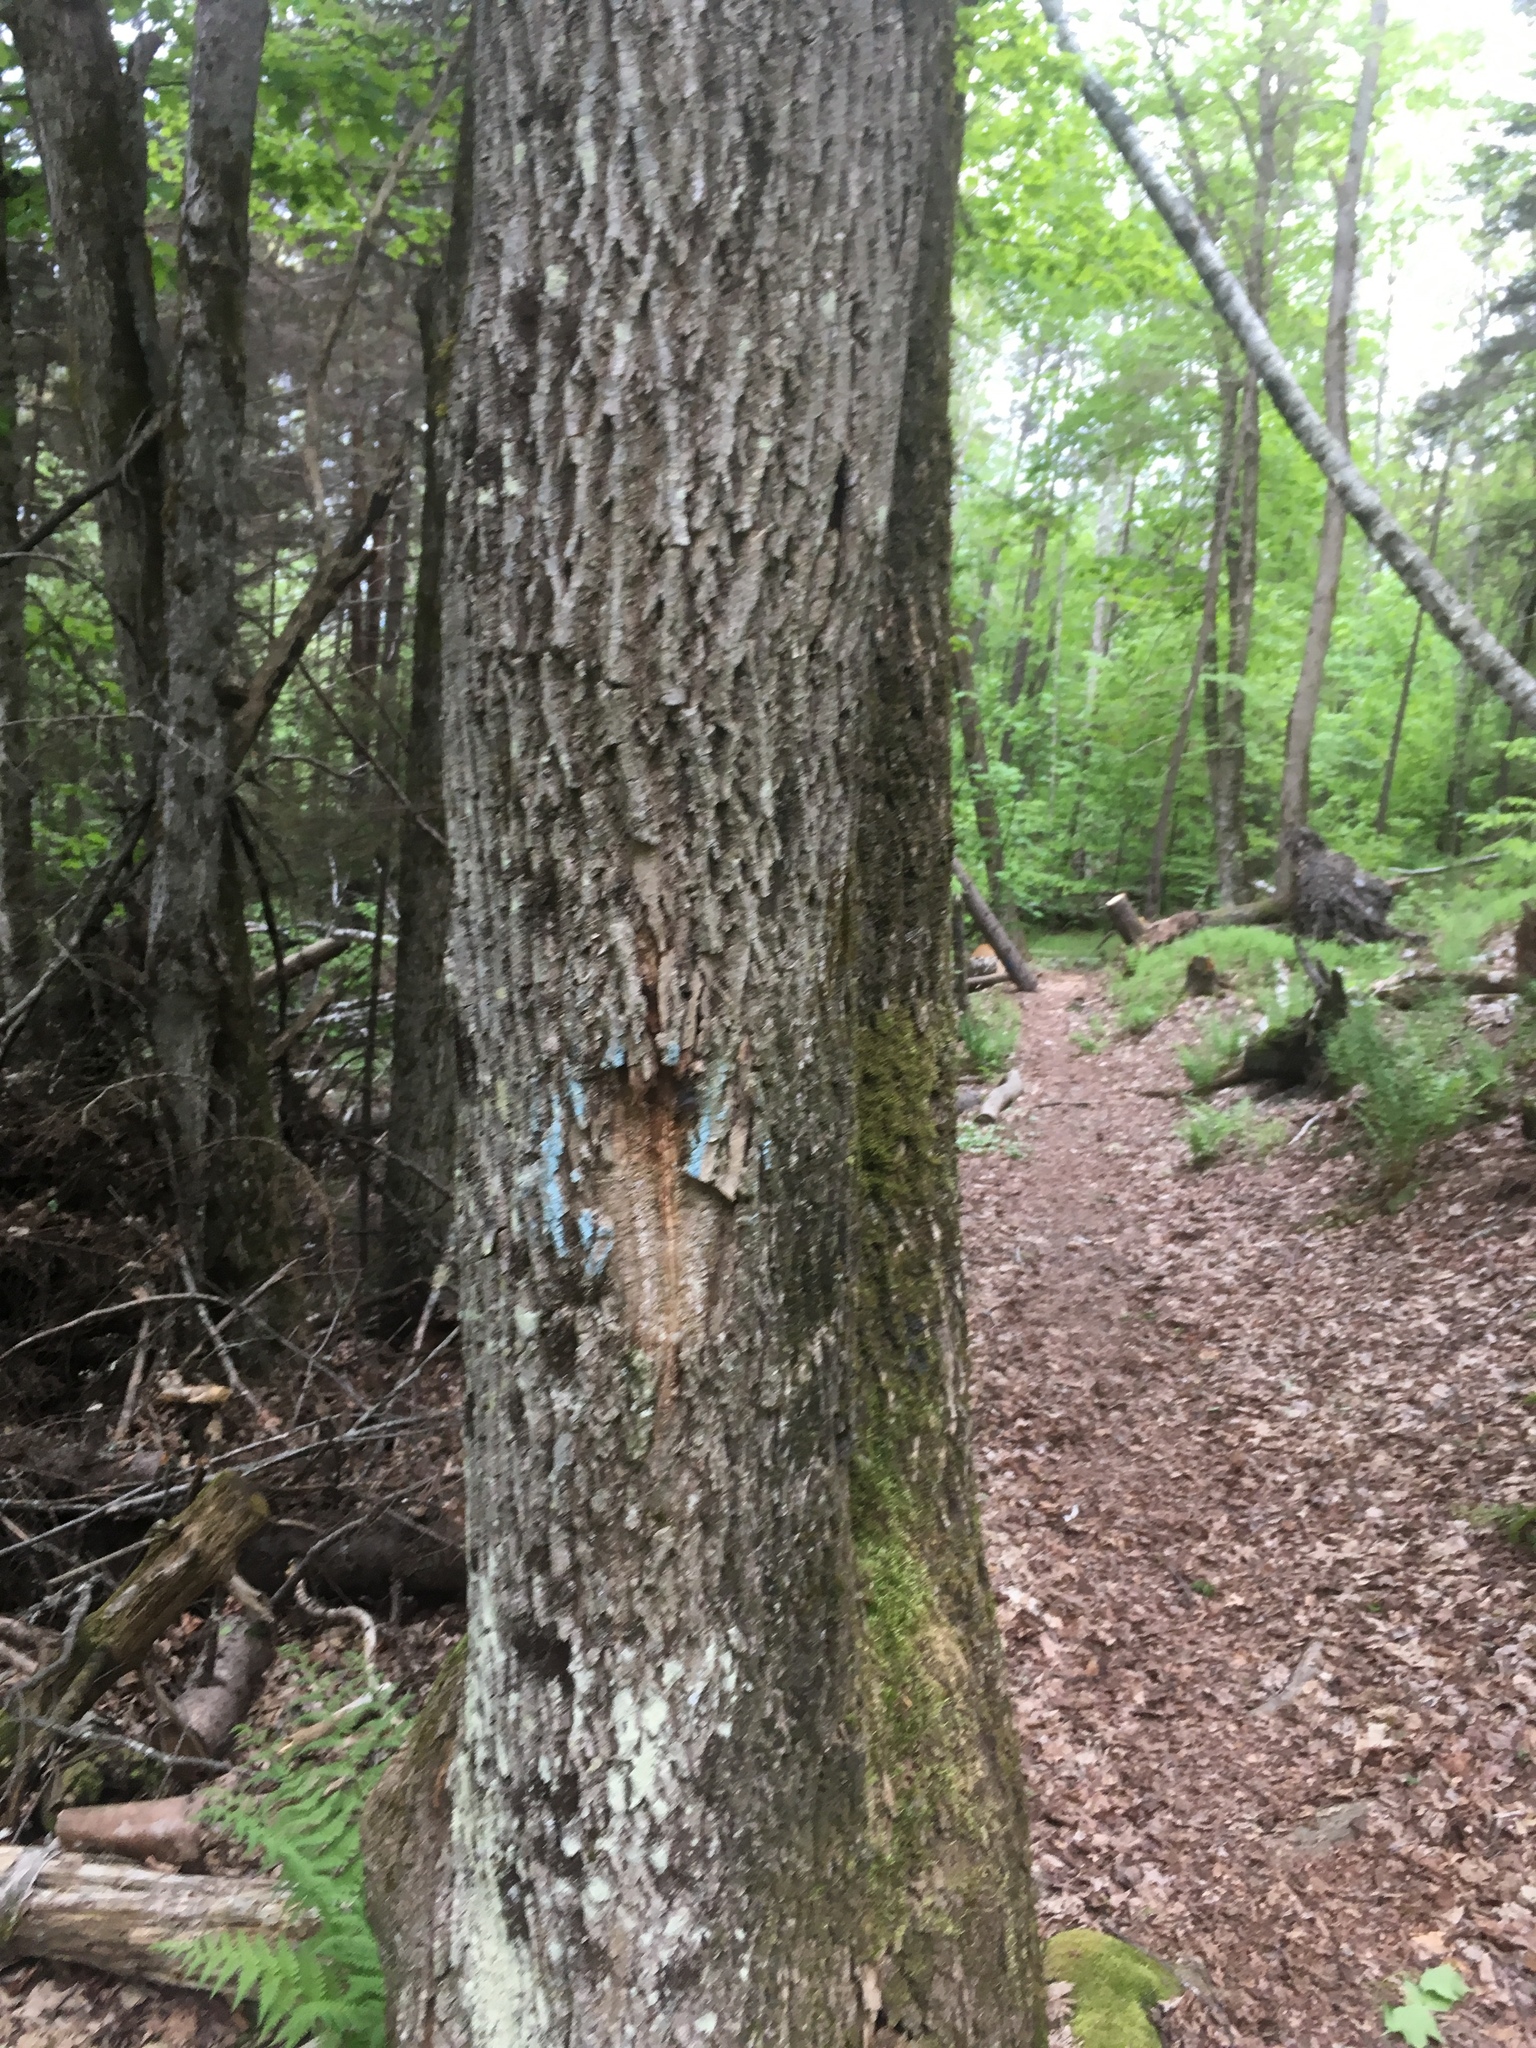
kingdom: Plantae
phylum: Tracheophyta
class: Magnoliopsida
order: Lamiales
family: Oleaceae
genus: Fraxinus
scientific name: Fraxinus americana
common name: White ash
